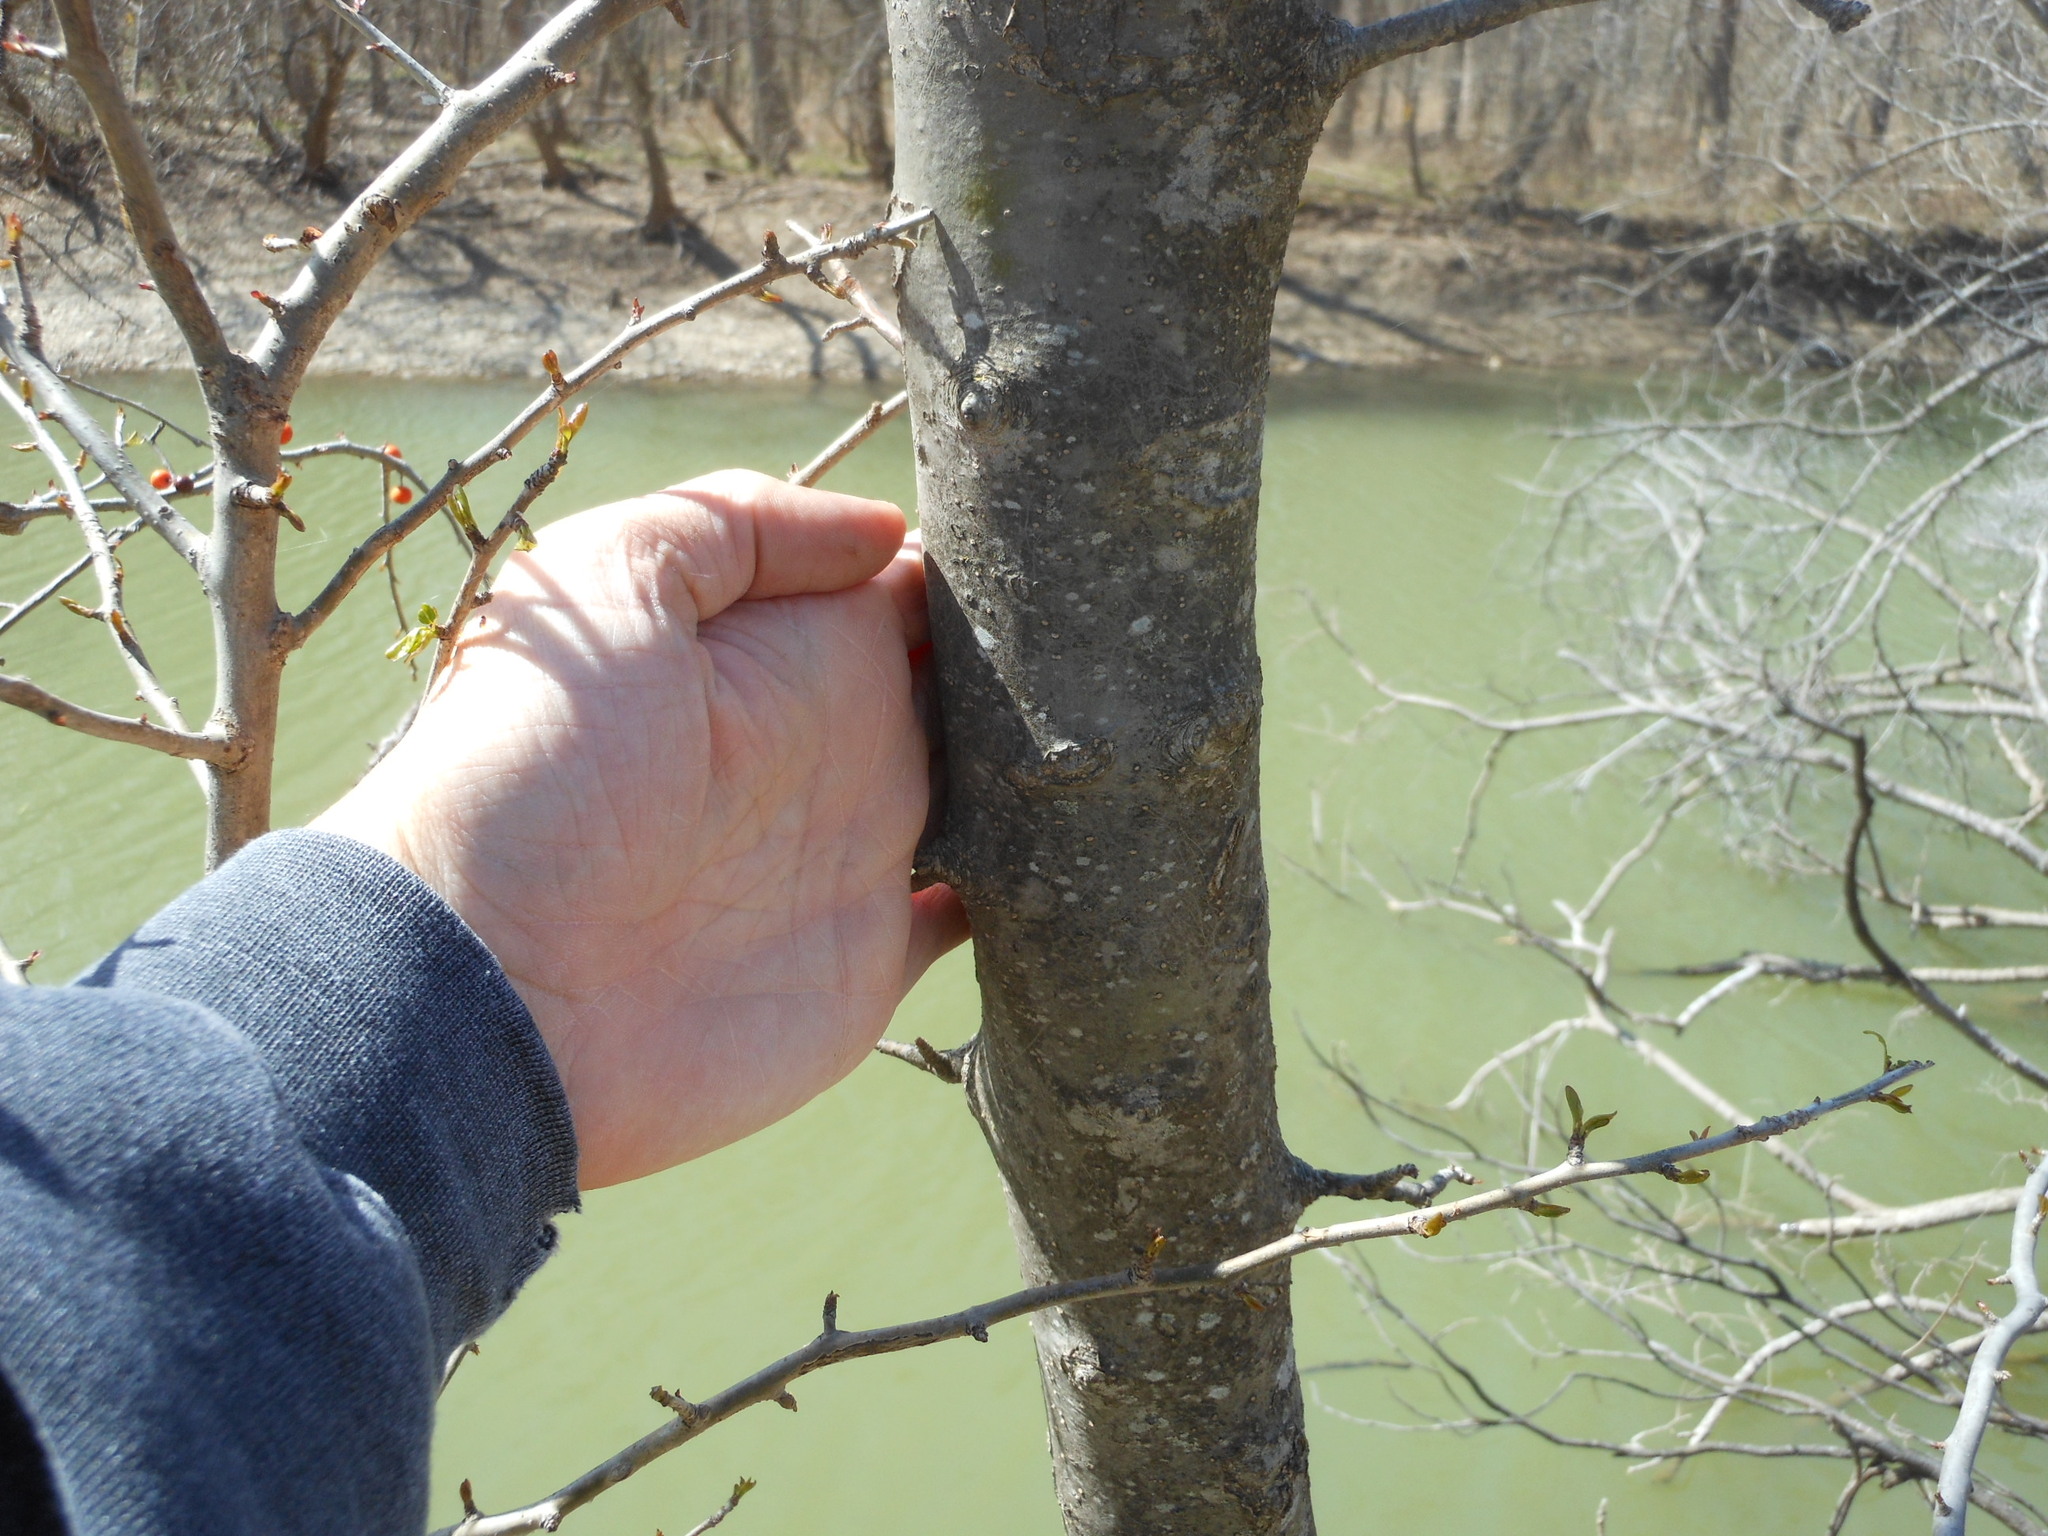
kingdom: Plantae
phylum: Tracheophyta
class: Magnoliopsida
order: Aquifoliales
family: Aquifoliaceae
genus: Ilex
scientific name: Ilex decidua
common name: Possum-haw
